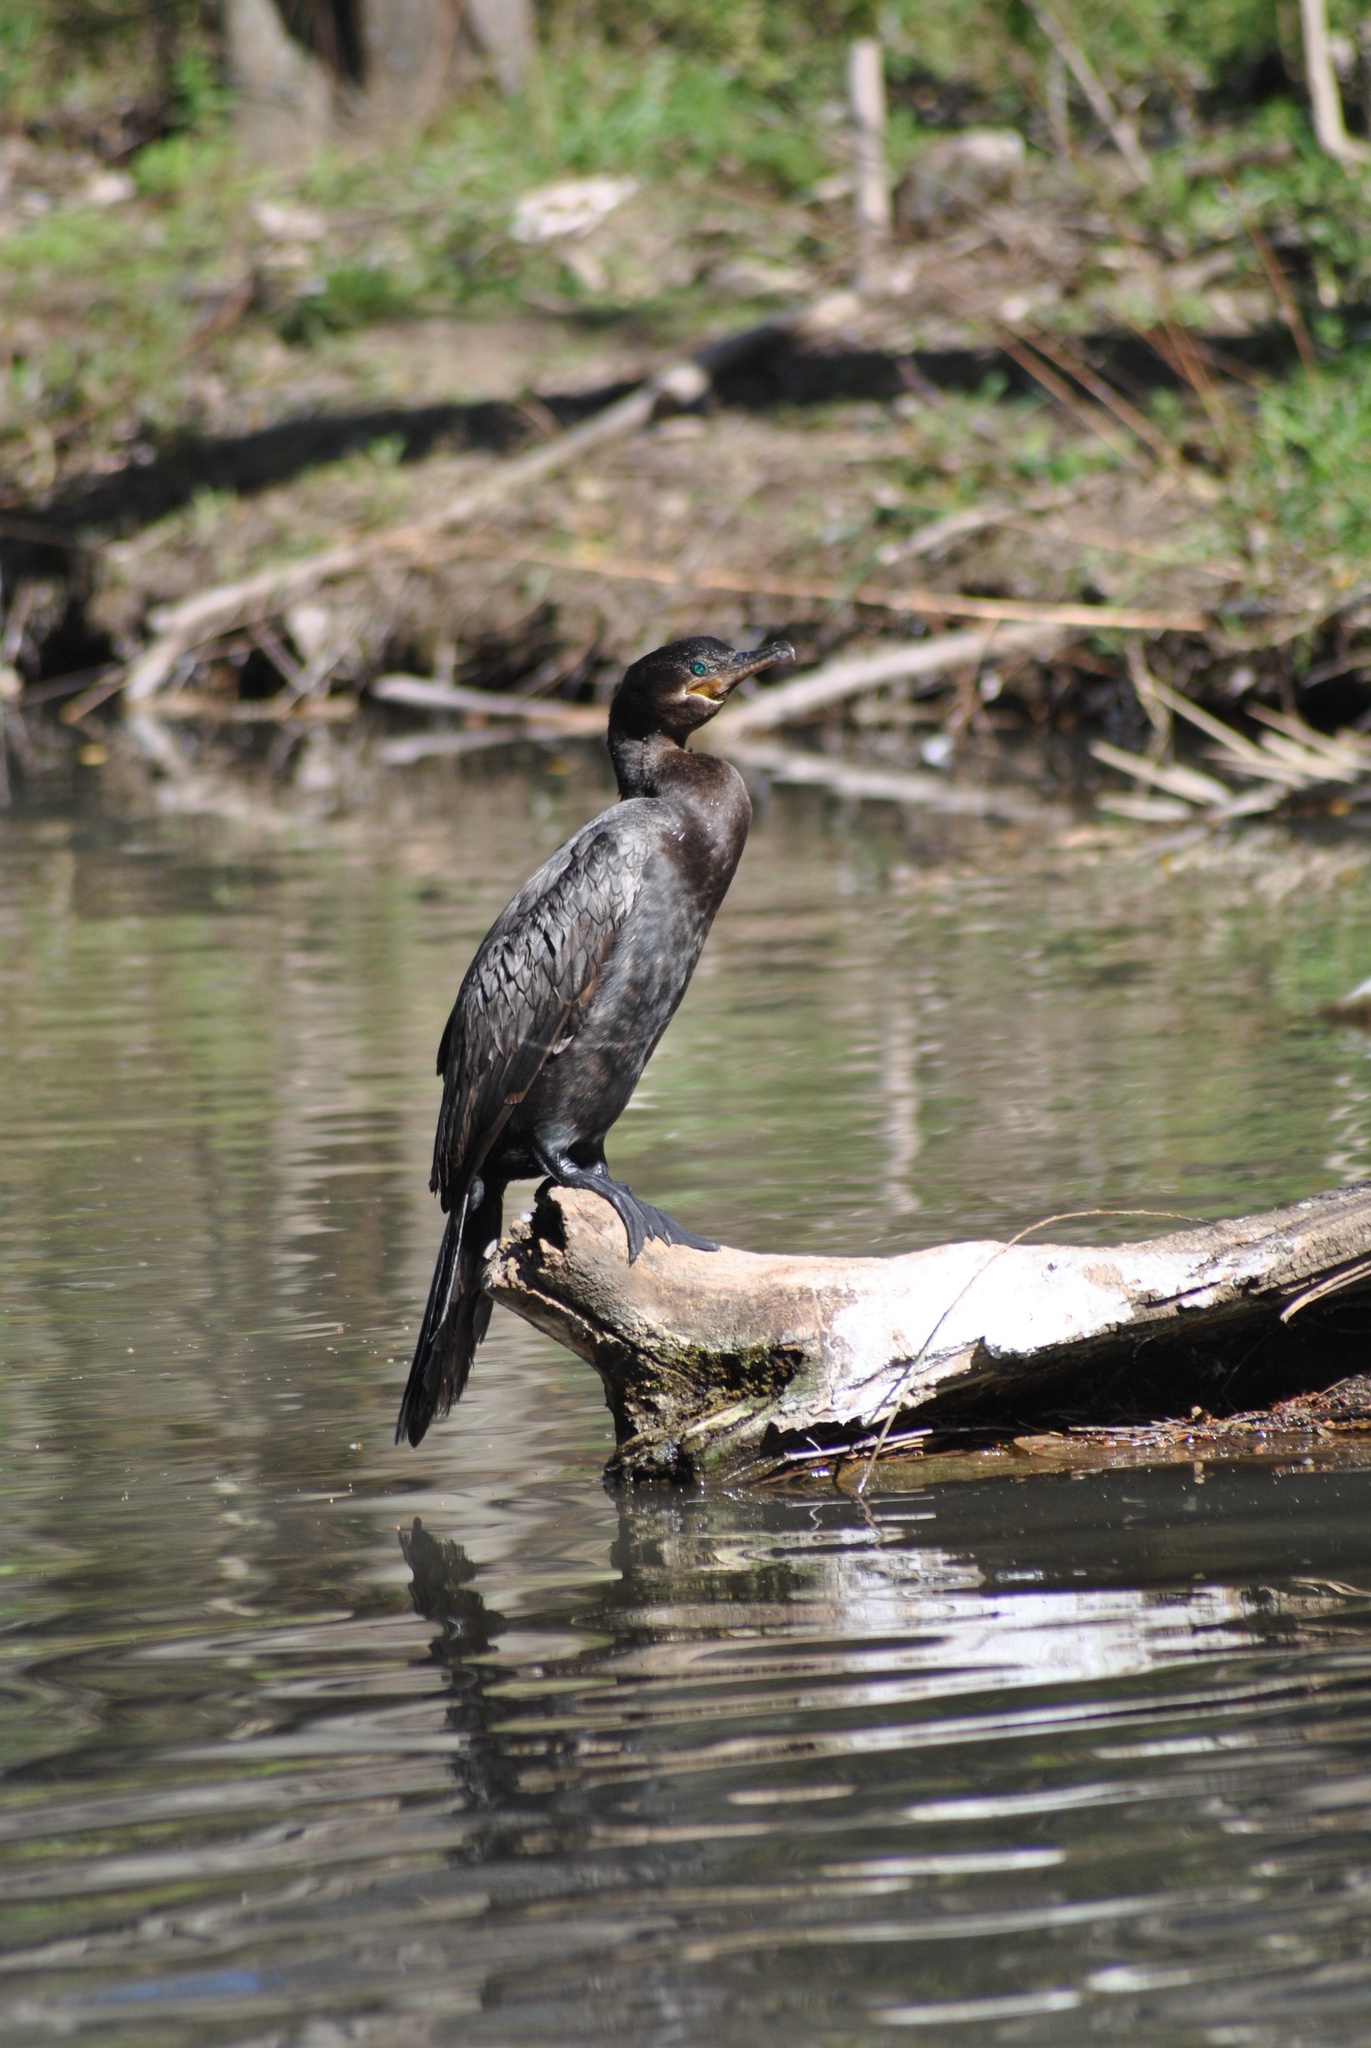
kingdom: Animalia
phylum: Chordata
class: Aves
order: Suliformes
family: Phalacrocoracidae
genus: Phalacrocorax
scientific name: Phalacrocorax brasilianus
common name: Neotropic cormorant
